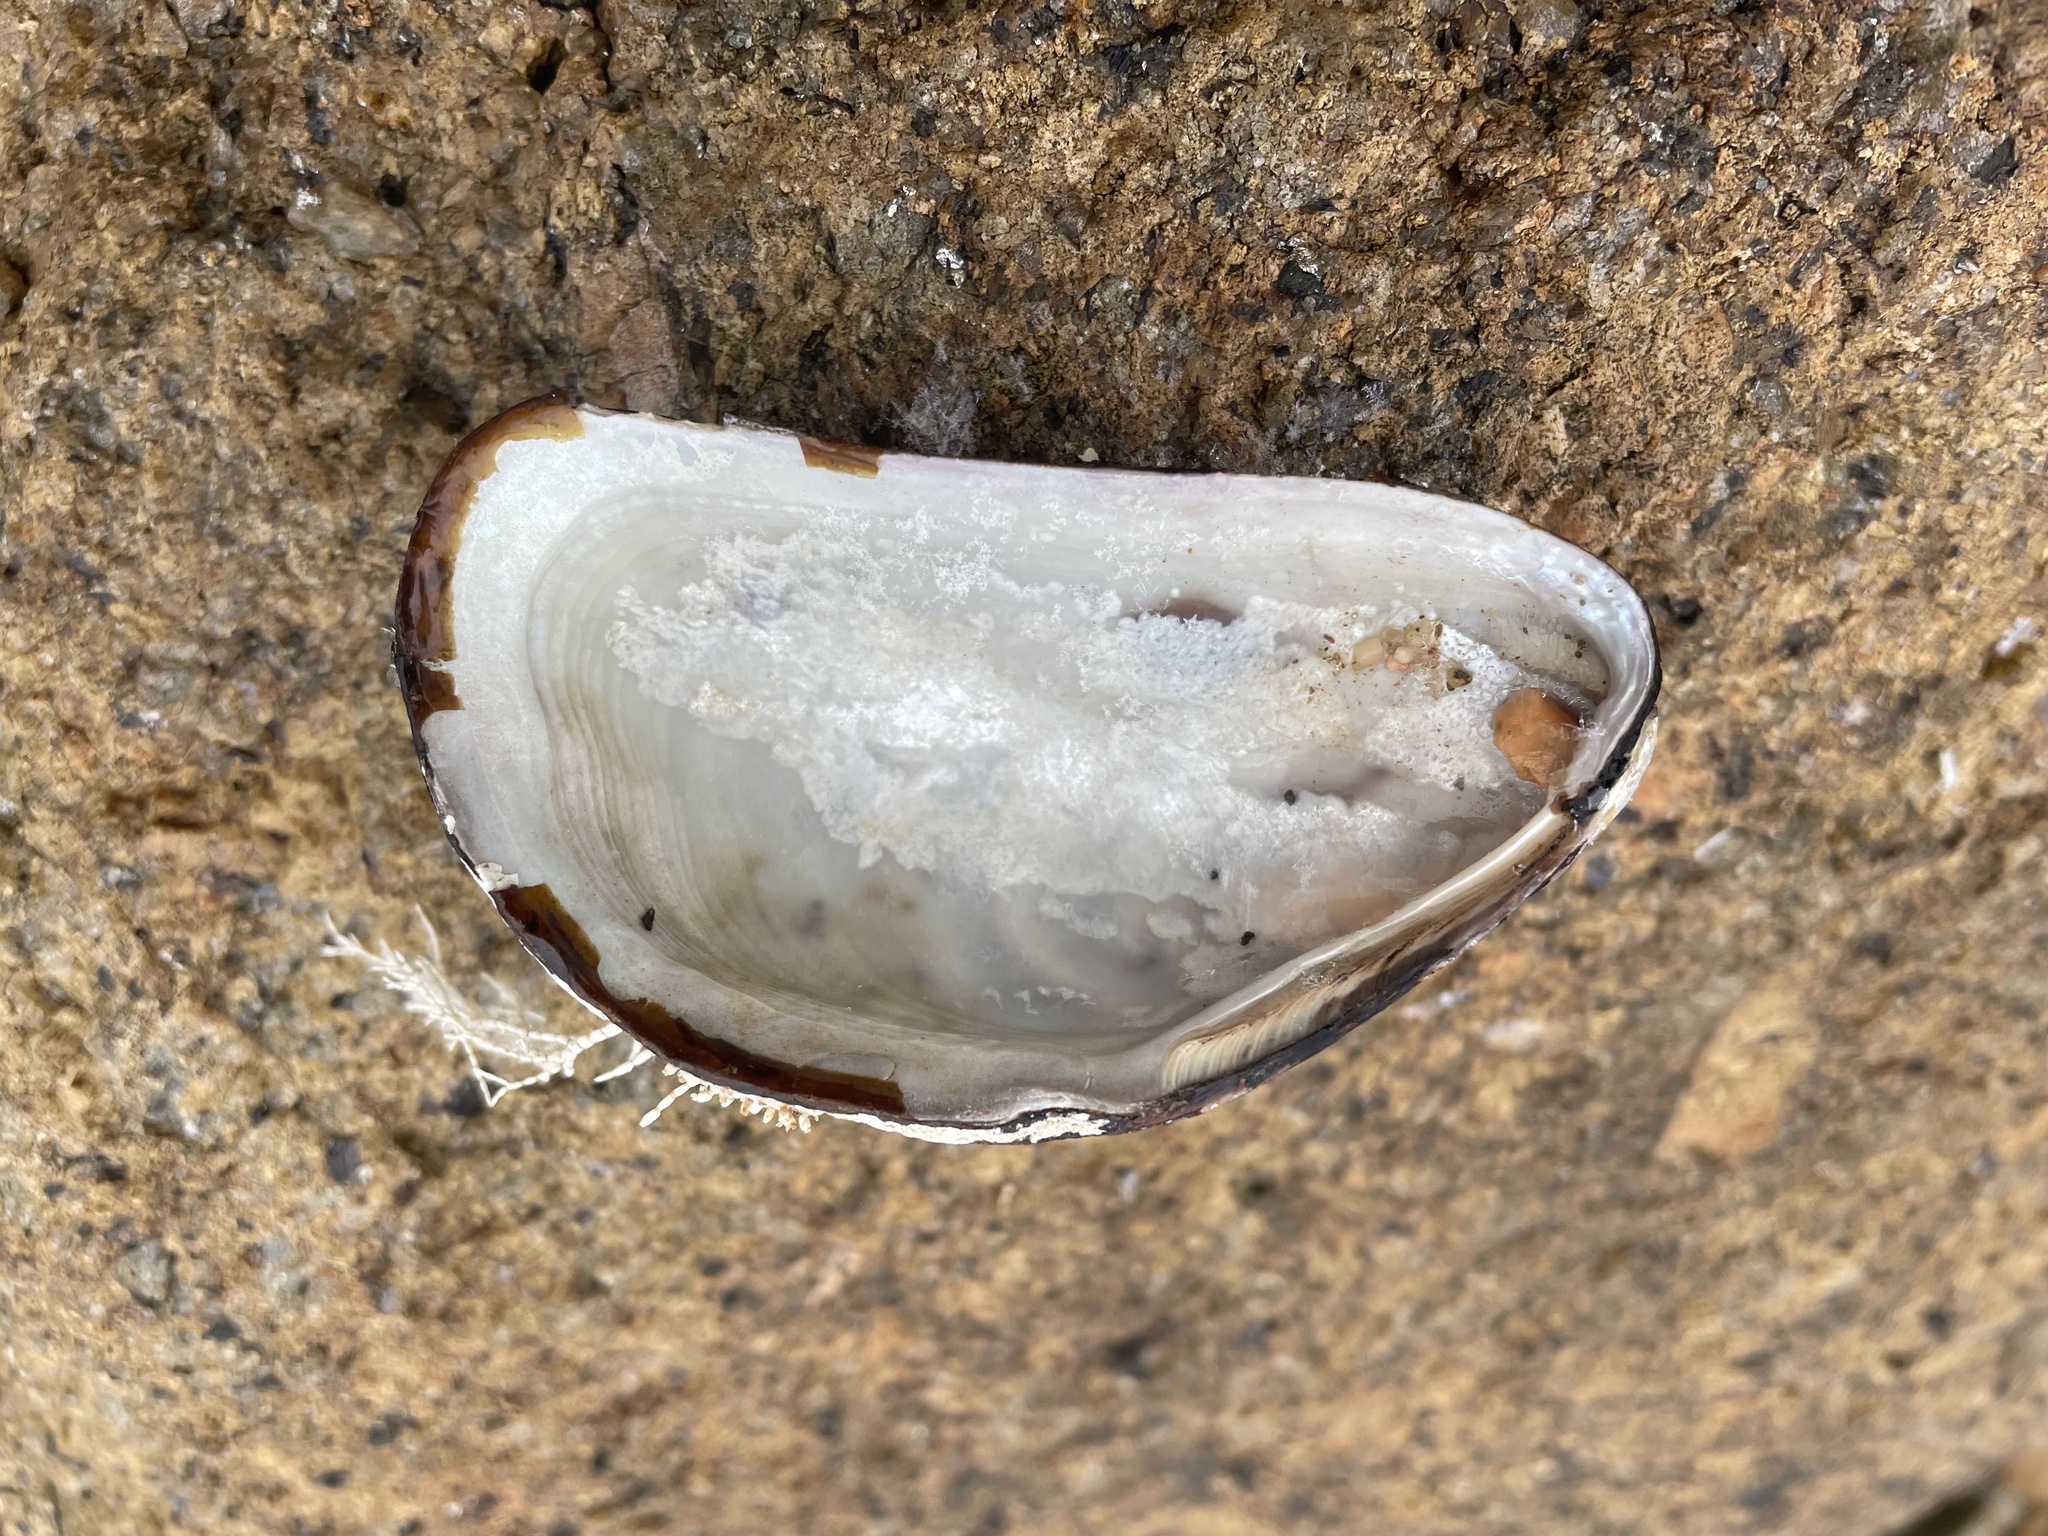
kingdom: Animalia
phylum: Mollusca
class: Bivalvia
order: Mytilida
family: Mytilidae
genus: Modiolus
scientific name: Modiolus modiolus
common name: Horse-mussel
